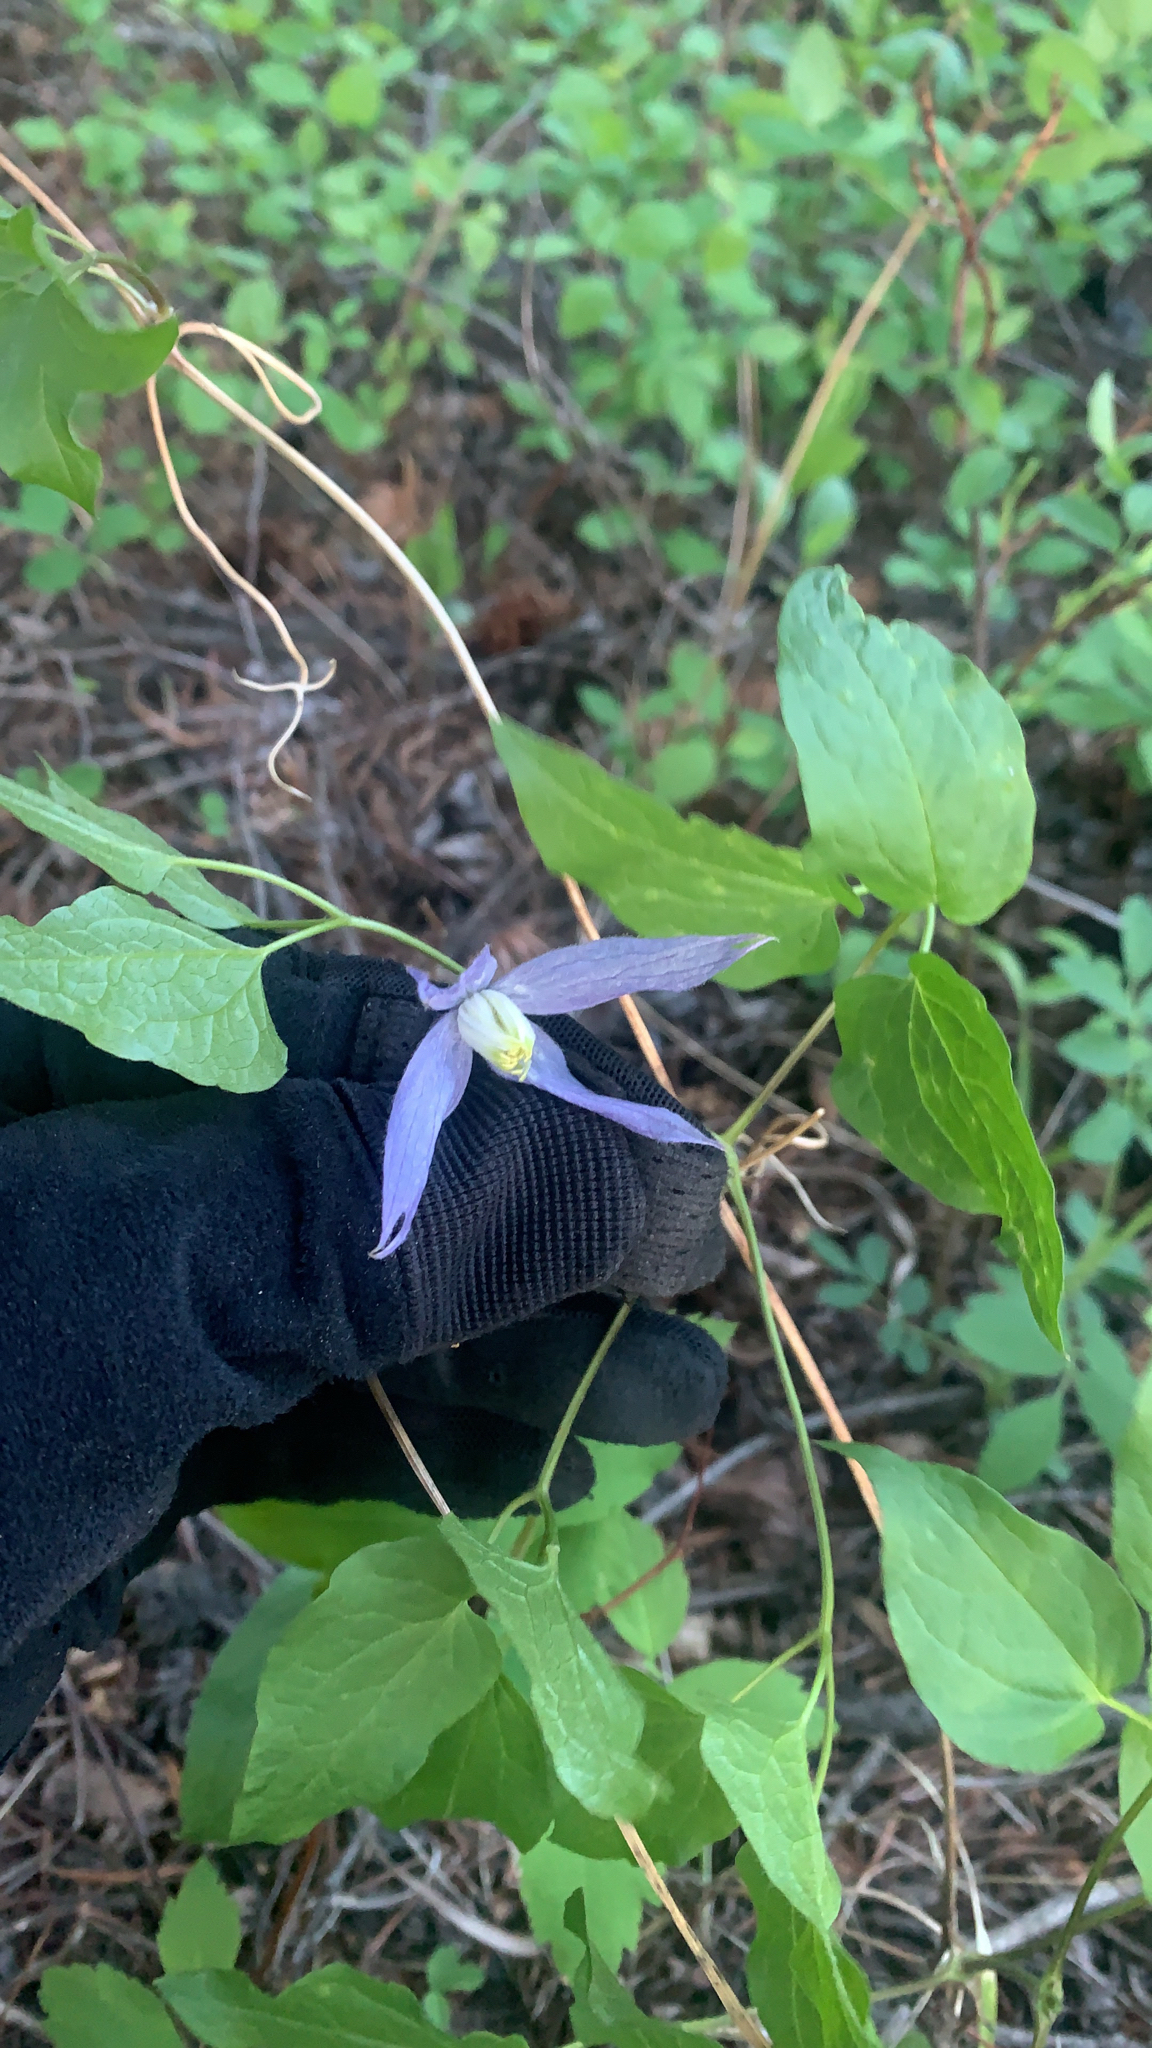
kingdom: Plantae
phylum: Tracheophyta
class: Magnoliopsida
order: Ranunculales
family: Ranunculaceae
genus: Clematis
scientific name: Clematis occidentalis
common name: Purple clematis
